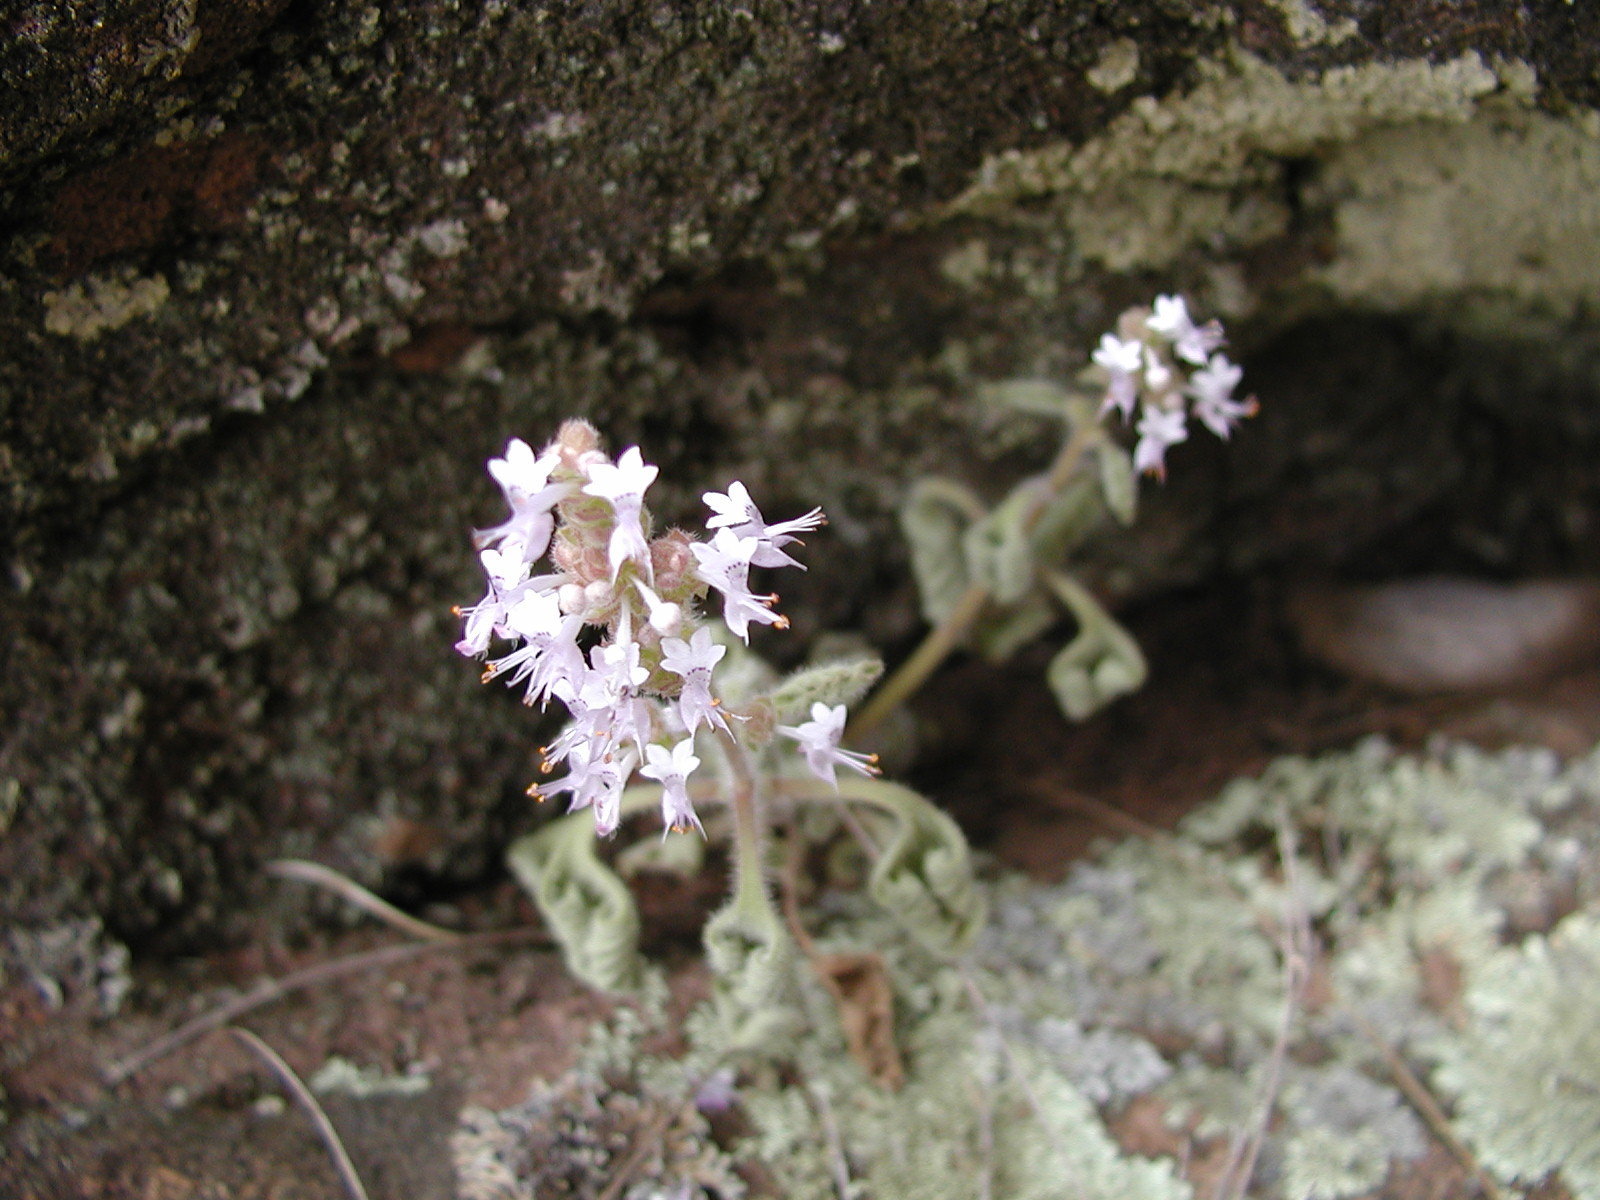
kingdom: Plantae
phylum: Tracheophyta
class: Magnoliopsida
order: Lamiales
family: Lamiaceae
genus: Aeollanthus
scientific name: Aeollanthus buchnerianus
